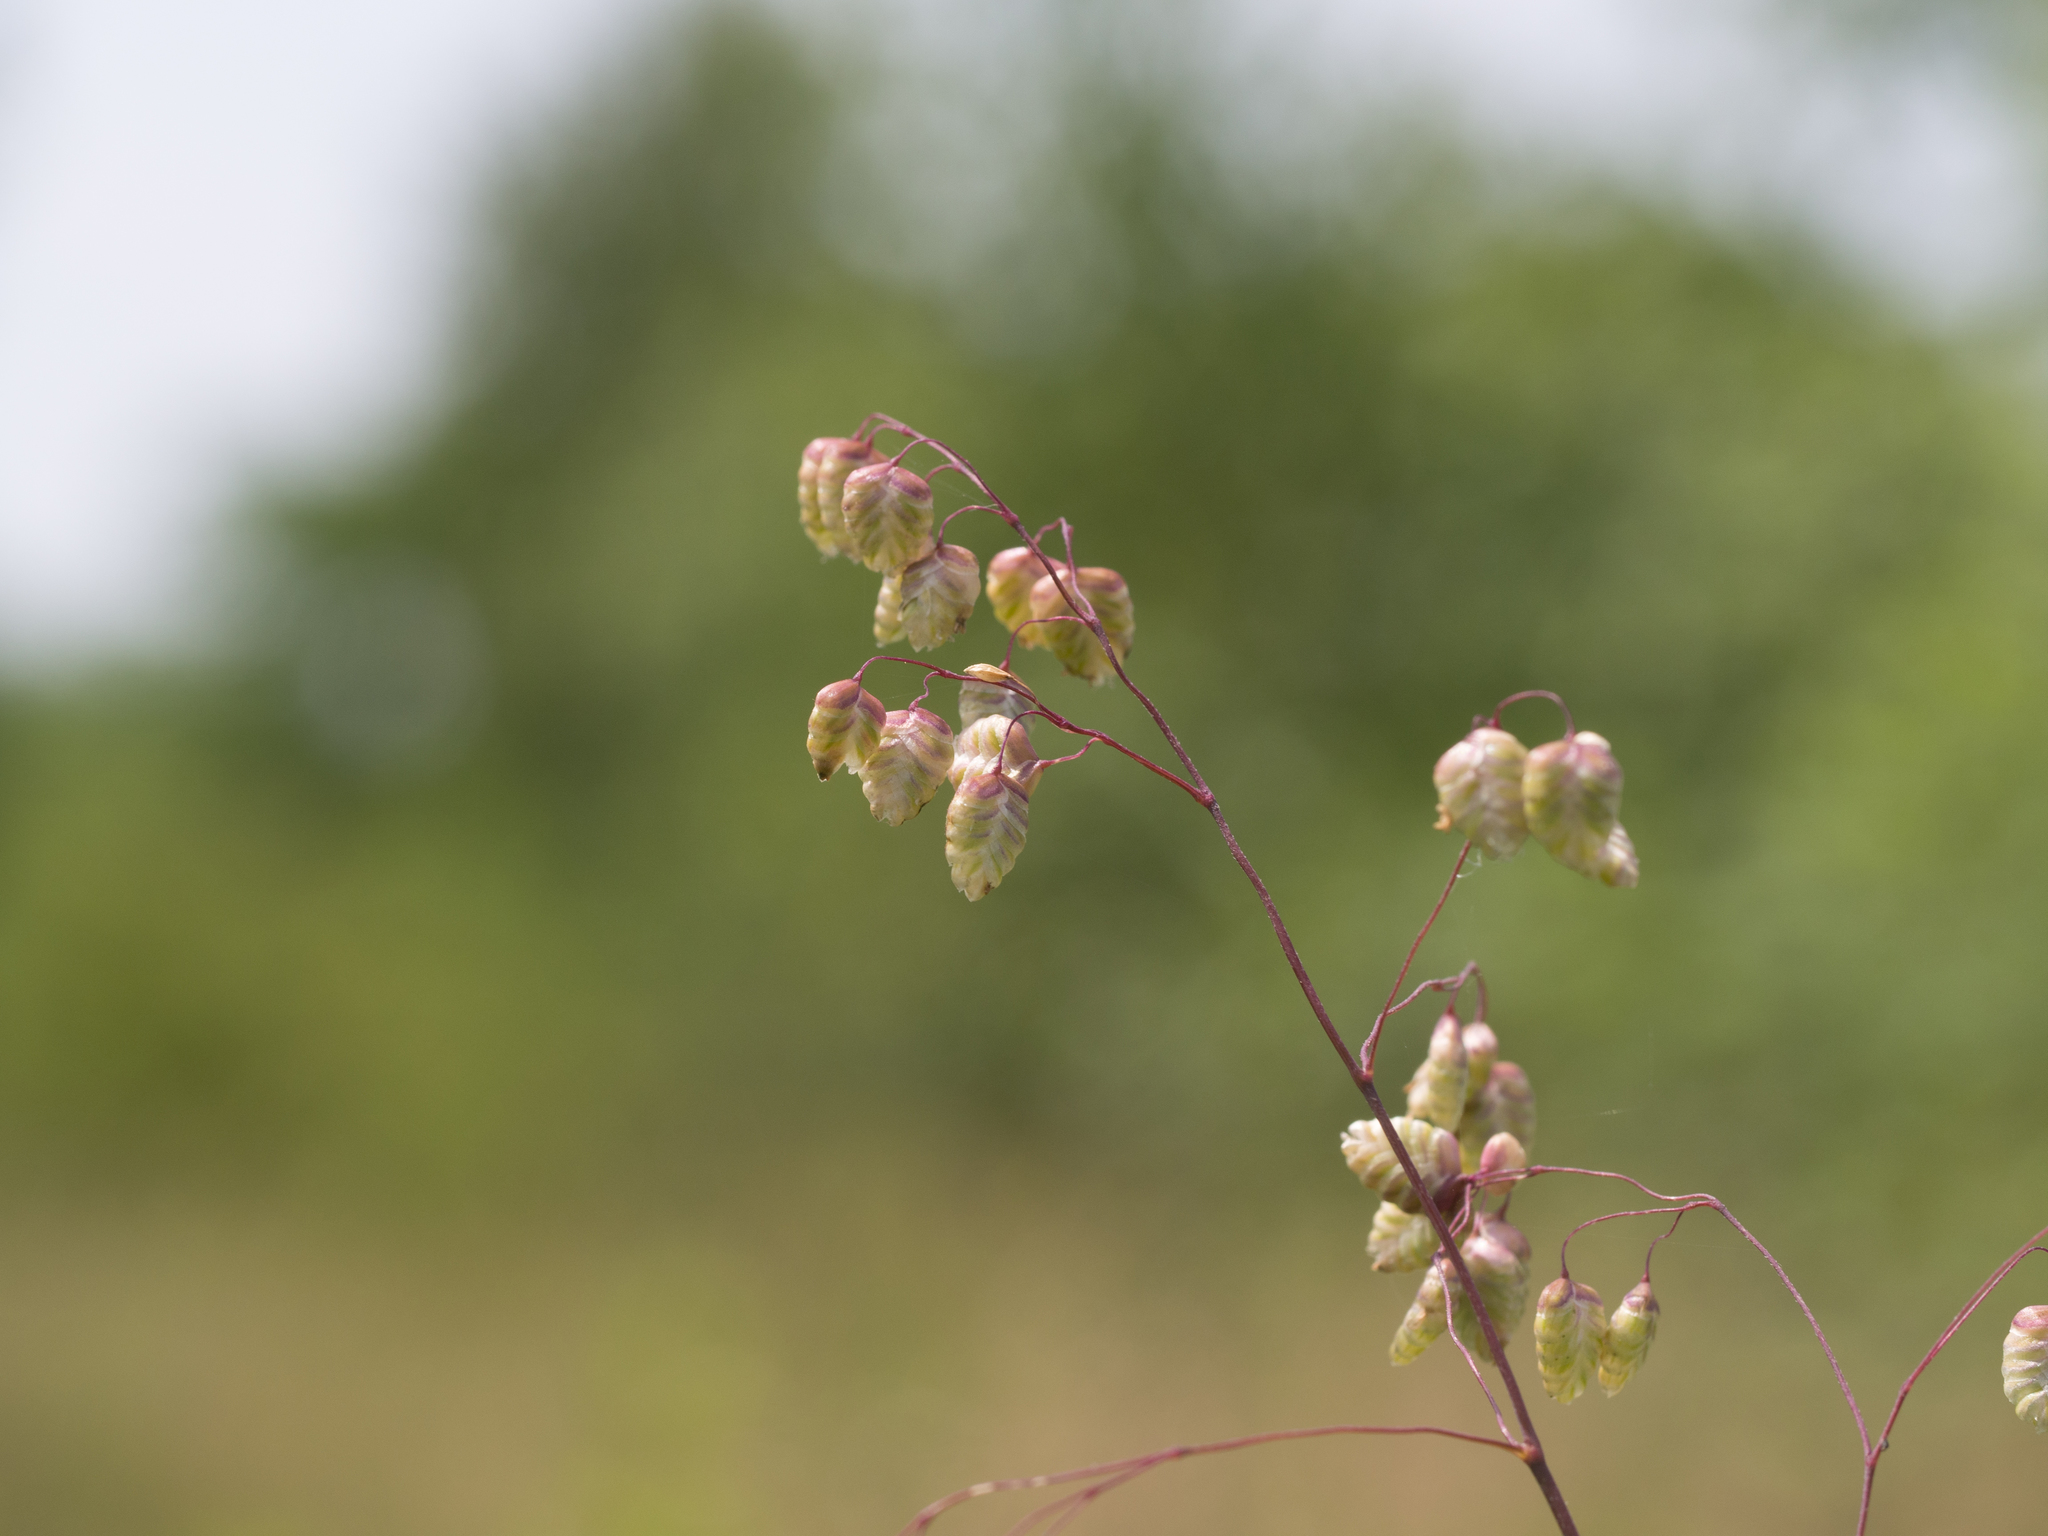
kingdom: Plantae
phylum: Tracheophyta
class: Liliopsida
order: Poales
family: Poaceae
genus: Briza
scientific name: Briza media
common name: Quaking grass
